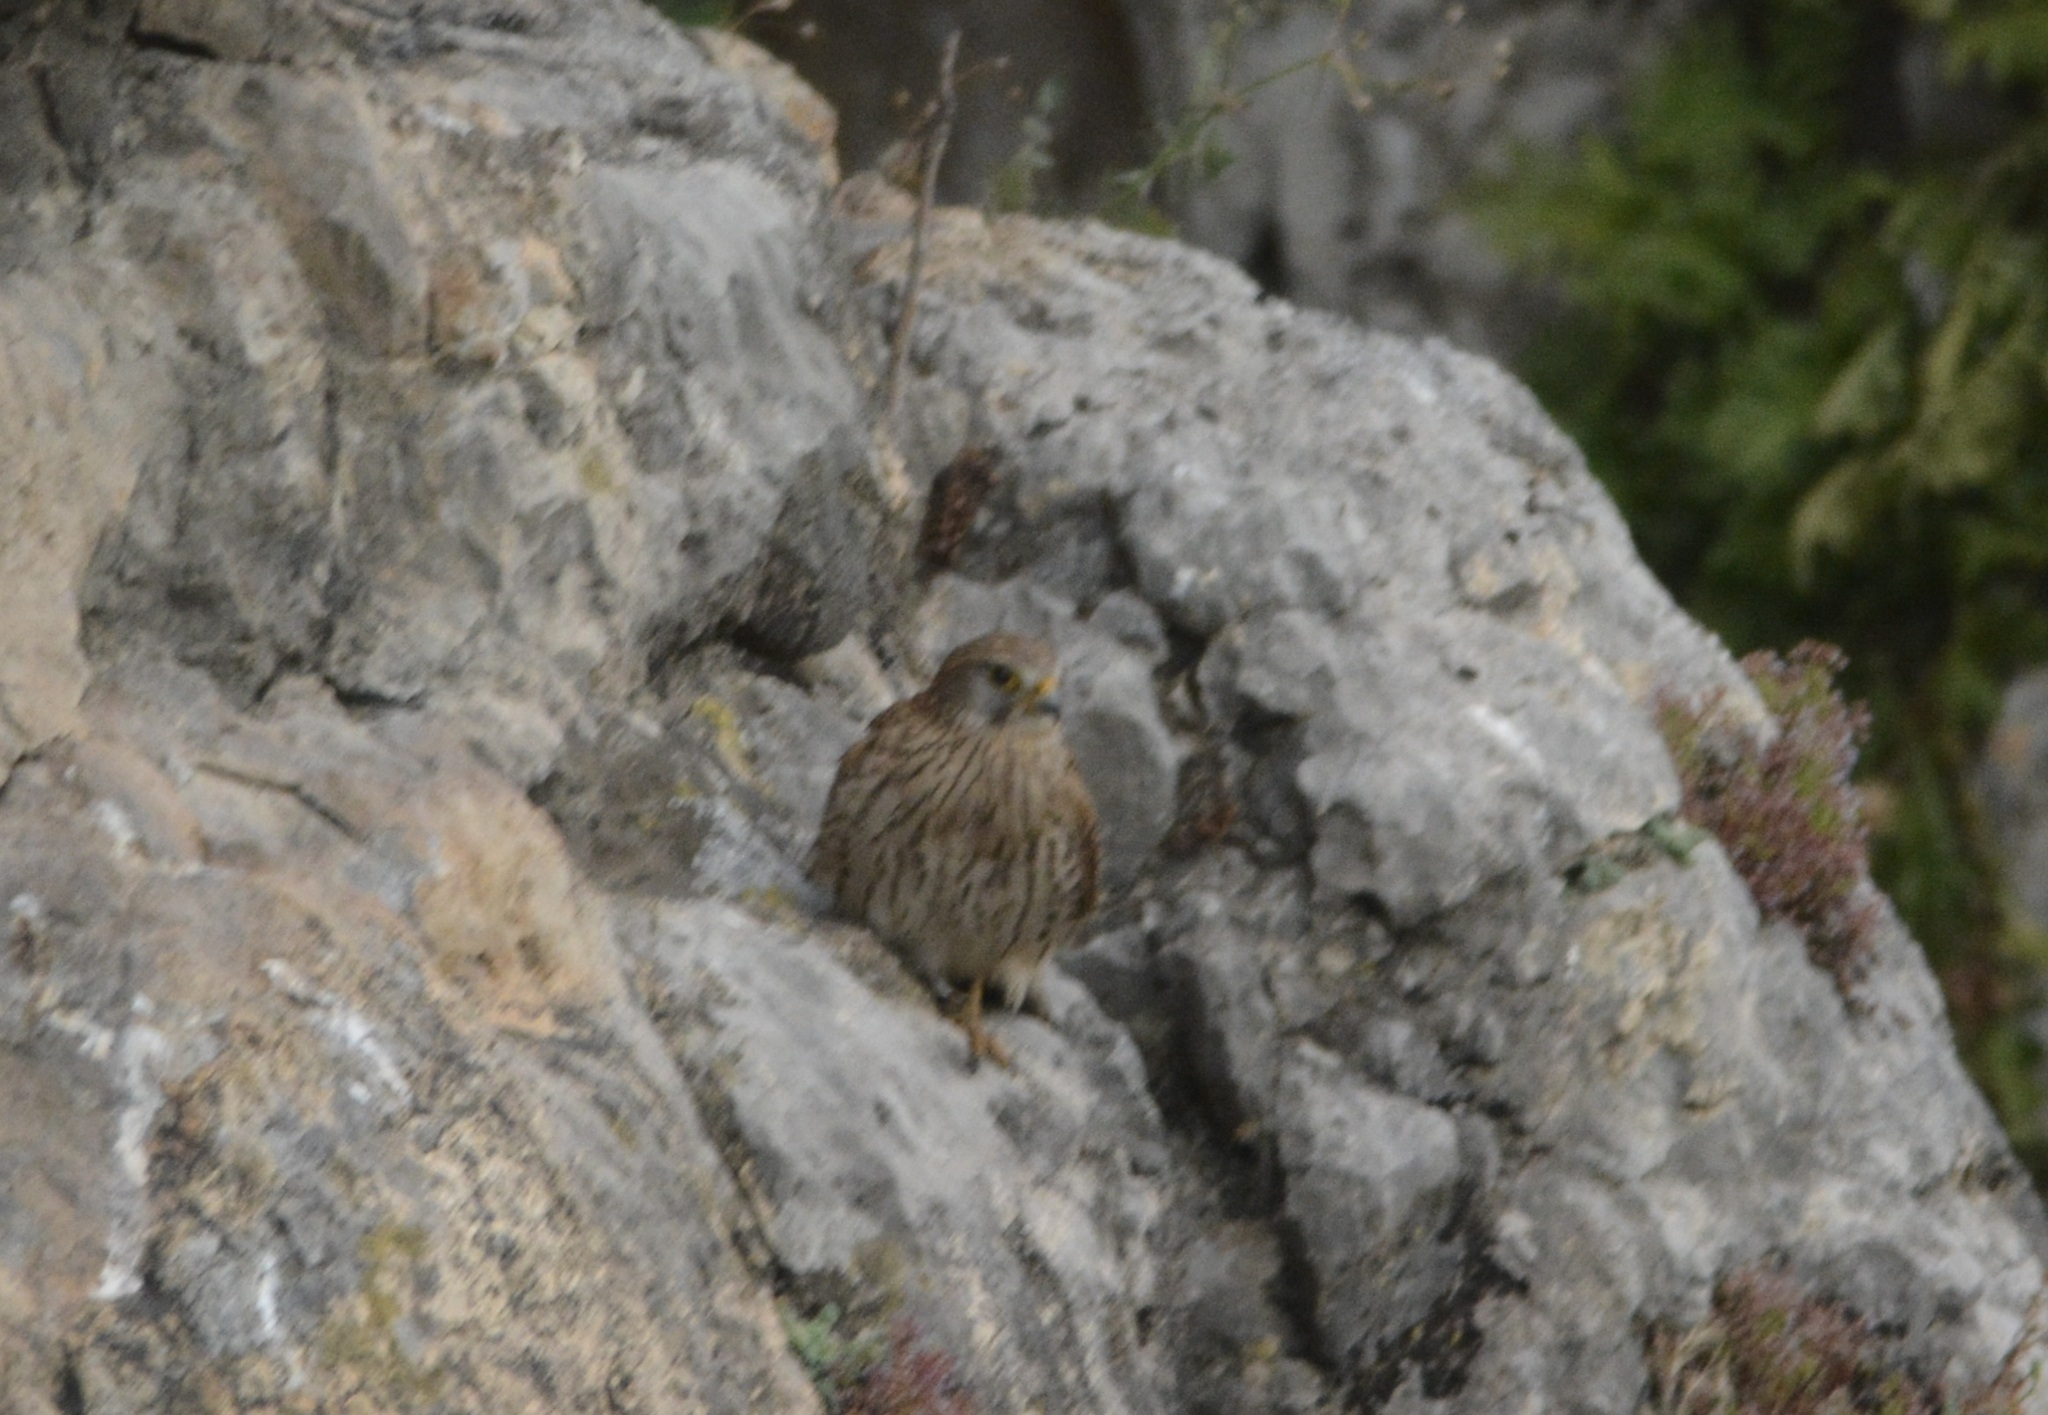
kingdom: Animalia
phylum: Chordata
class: Aves
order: Falconiformes
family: Falconidae
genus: Falco
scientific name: Falco tinnunculus
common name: Common kestrel
